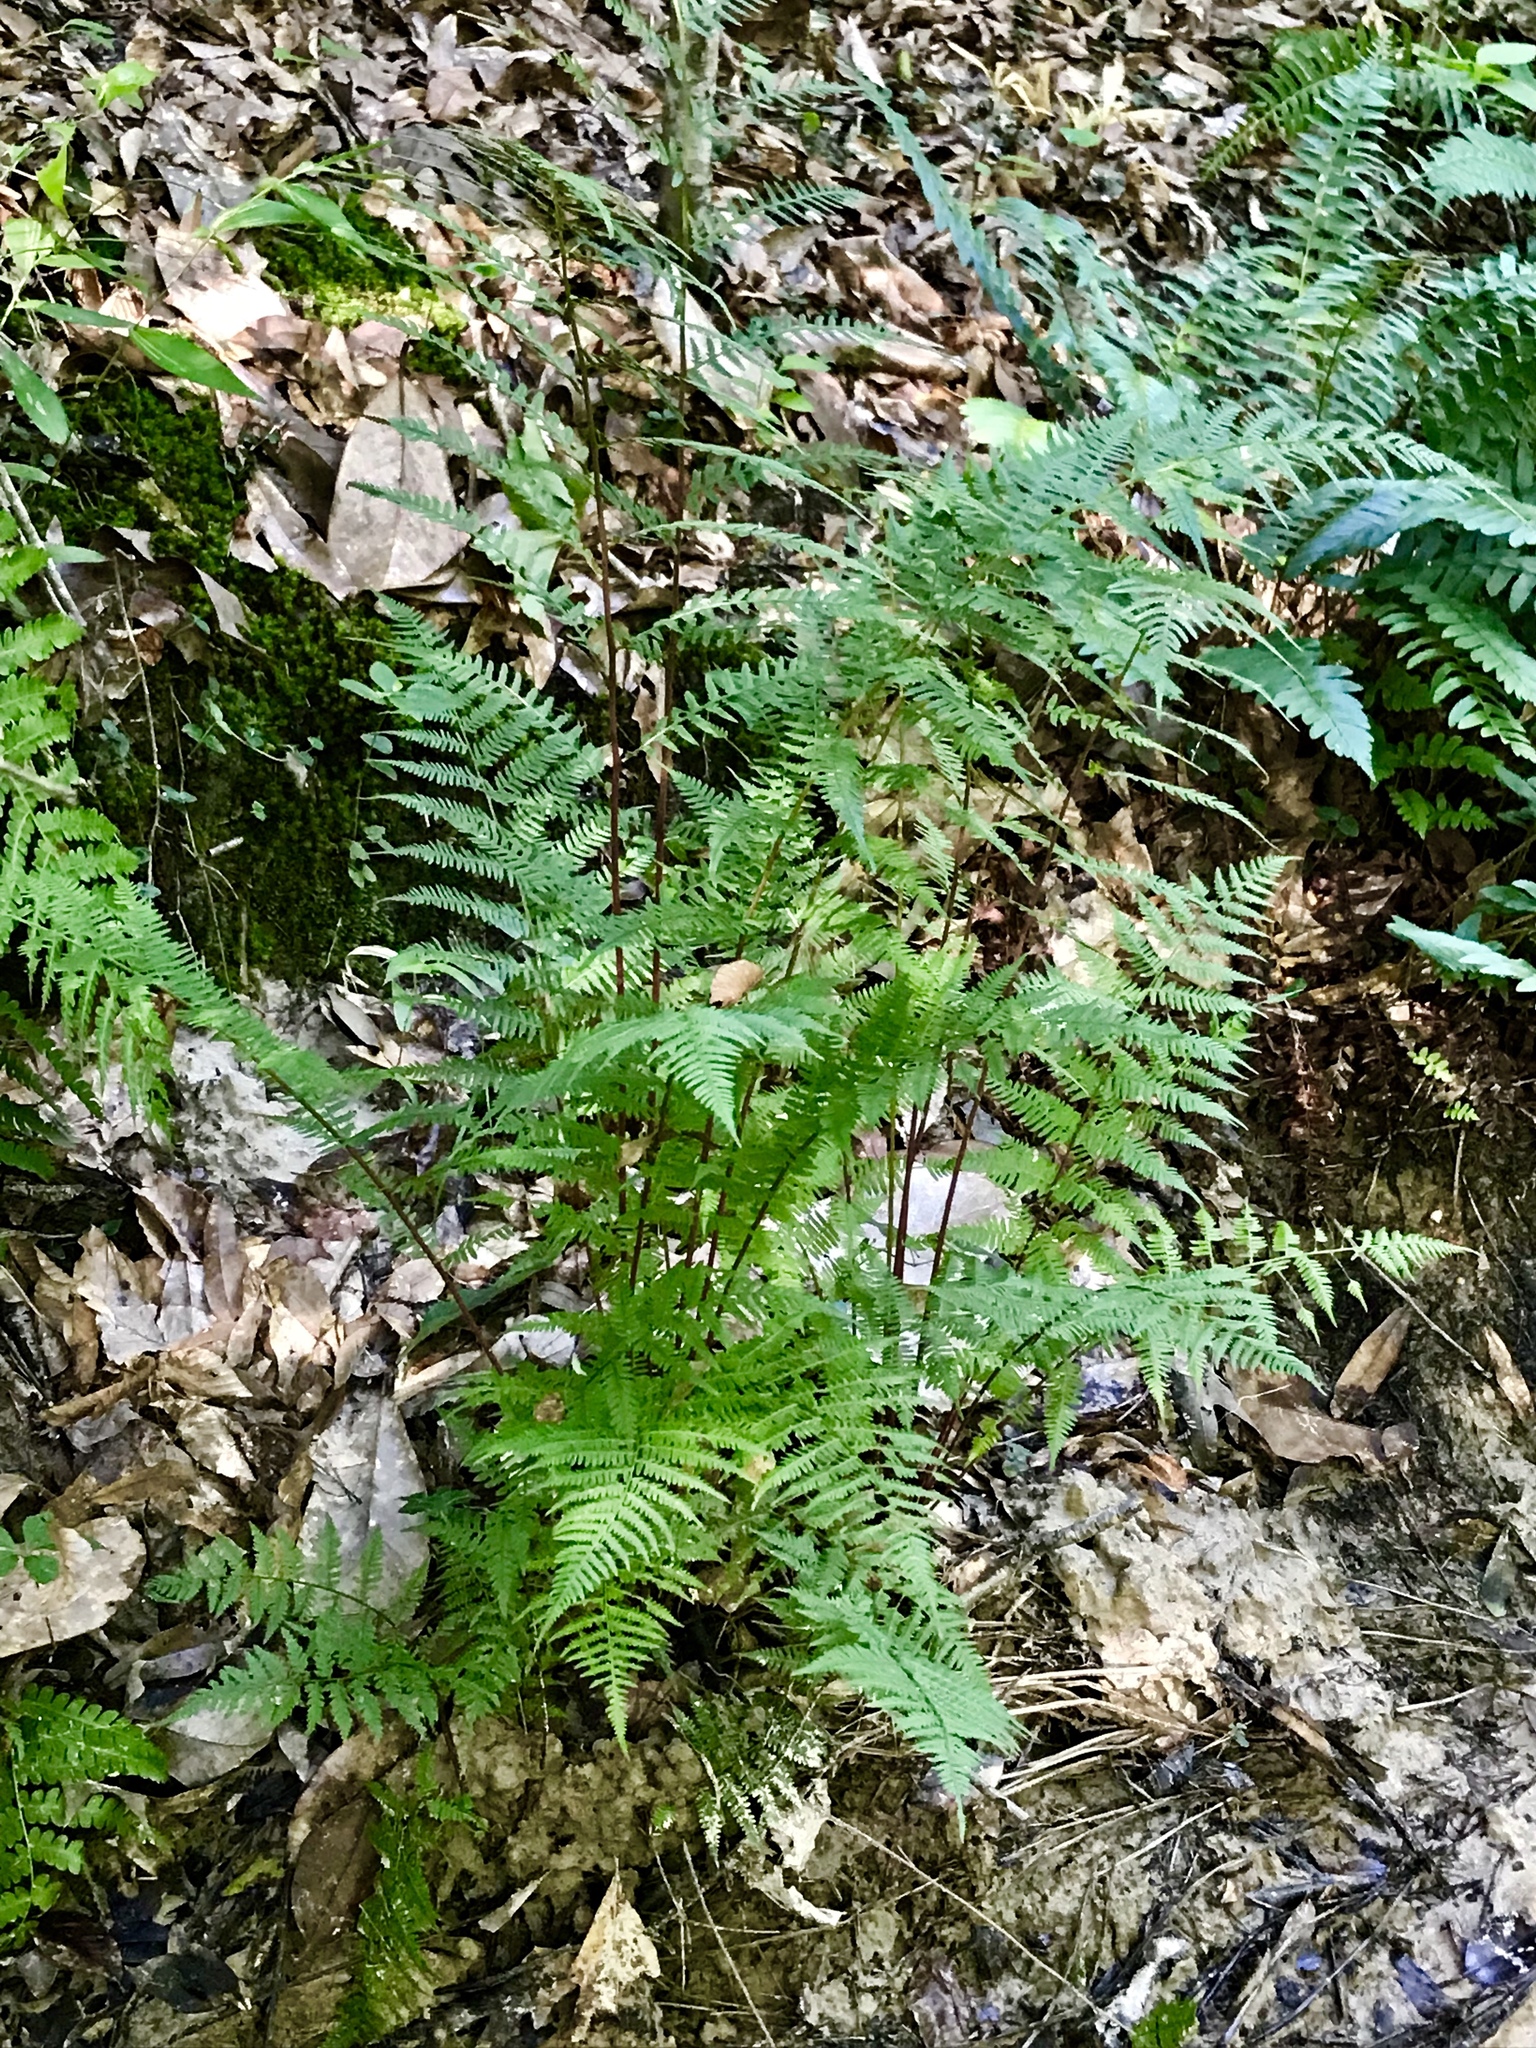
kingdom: Plantae
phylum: Tracheophyta
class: Polypodiopsida
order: Polypodiales
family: Athyriaceae
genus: Athyrium
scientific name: Athyrium asplenioides
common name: Southern lady fern
